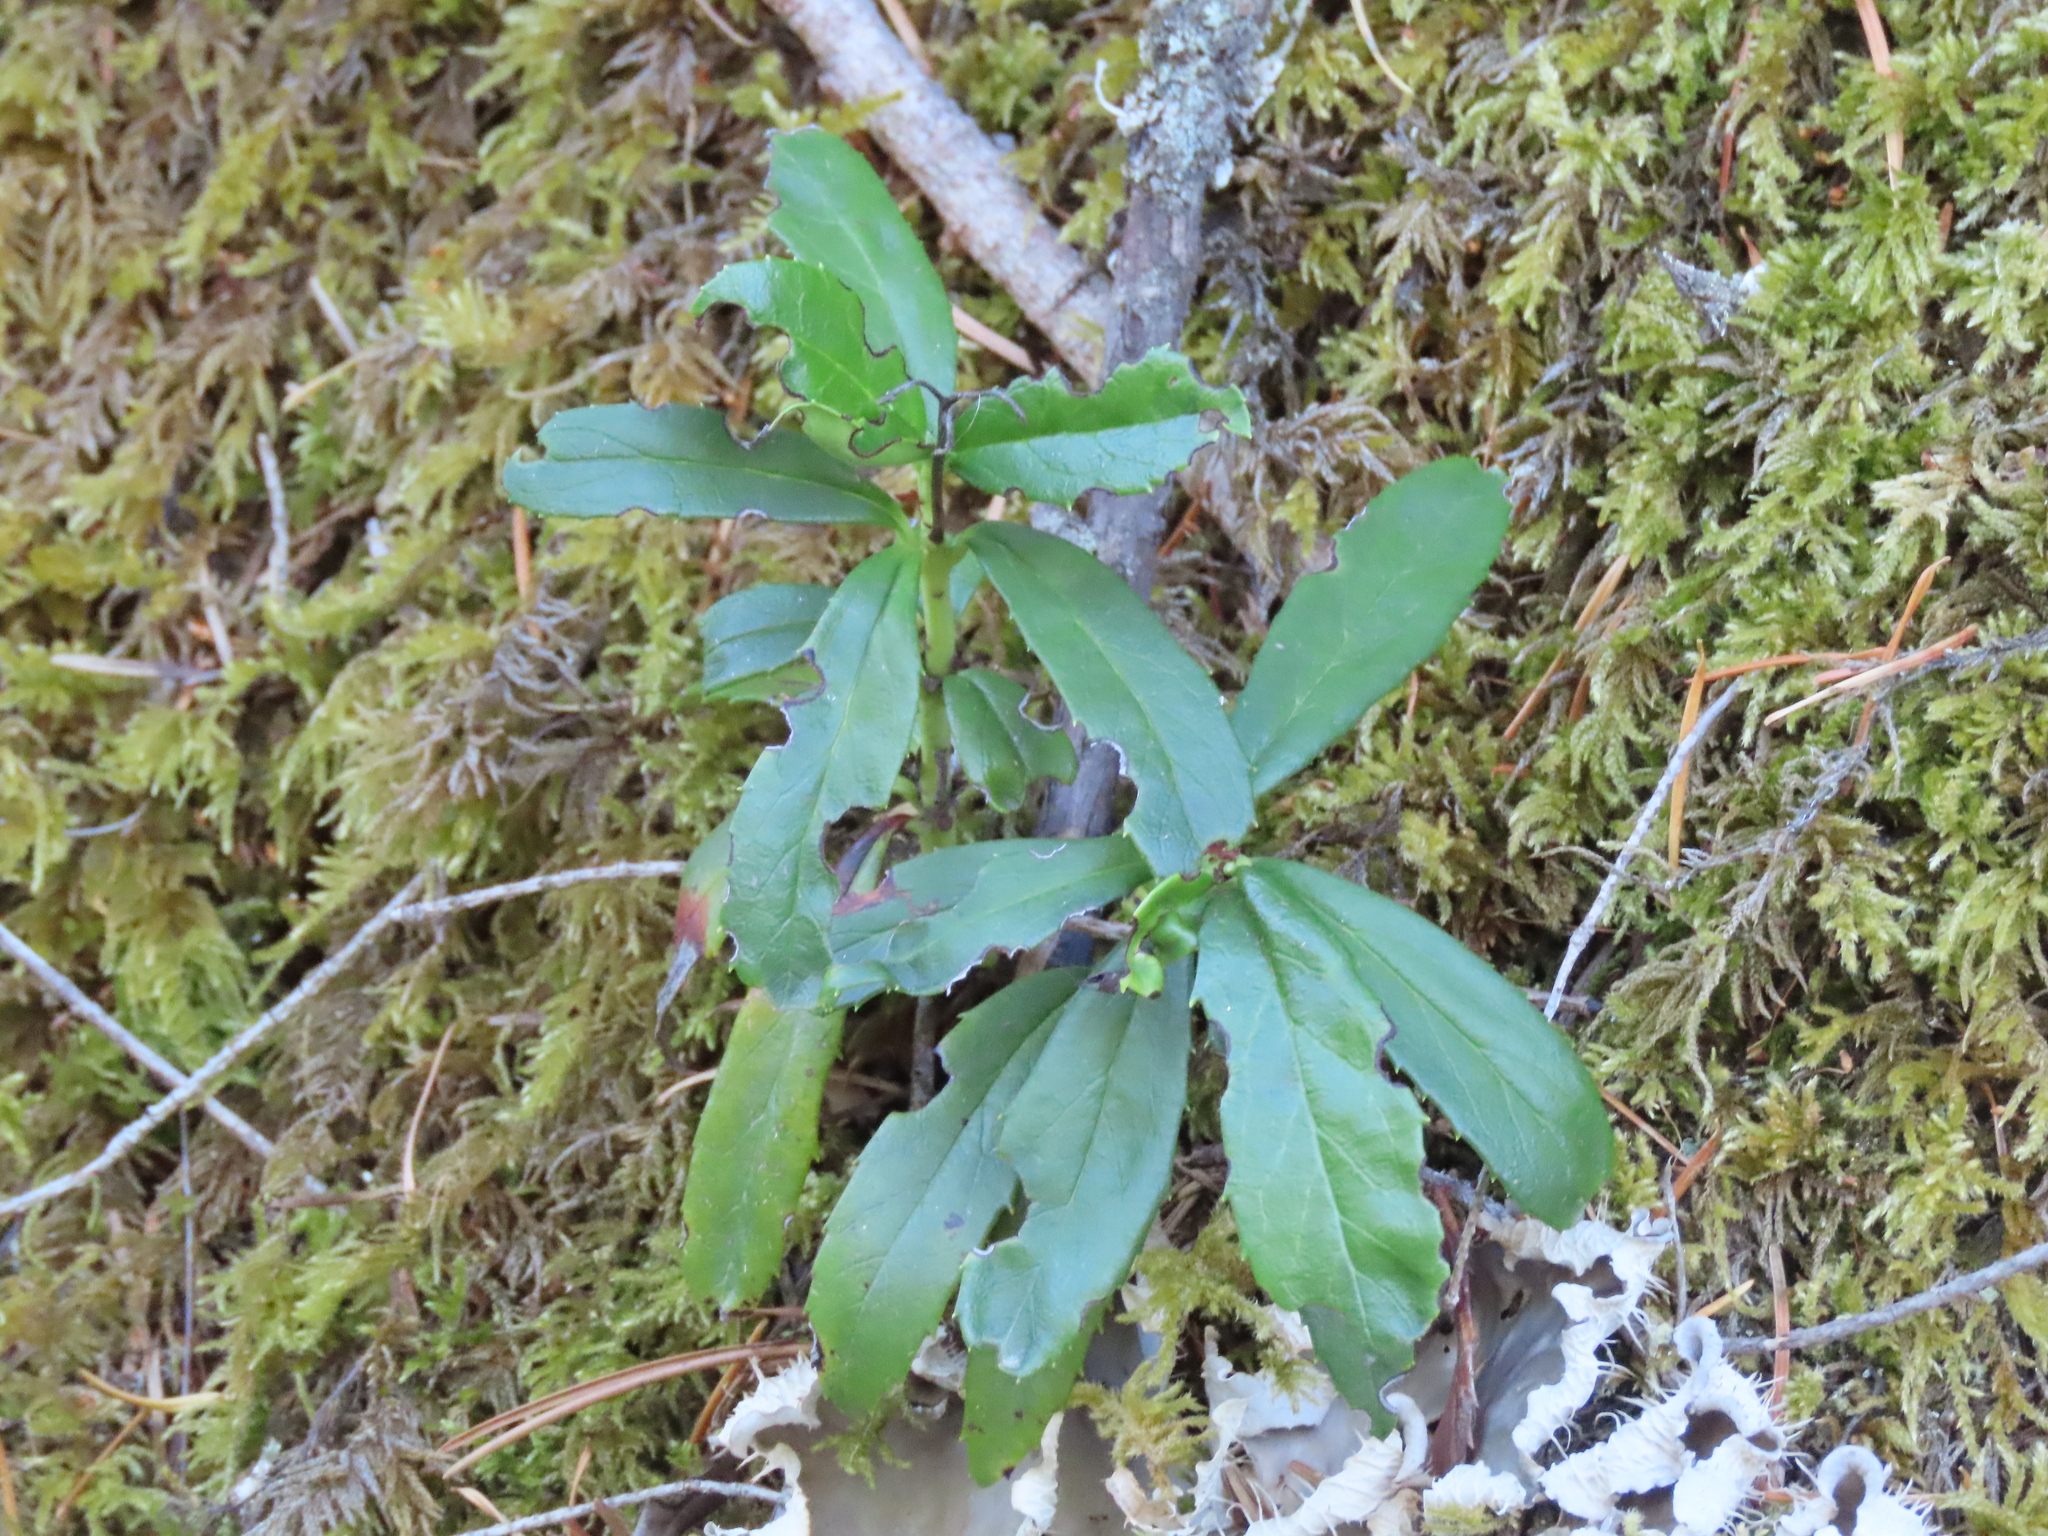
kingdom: Plantae
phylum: Tracheophyta
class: Magnoliopsida
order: Ericales
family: Ericaceae
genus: Chimaphila
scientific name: Chimaphila umbellata
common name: Pipsissewa
